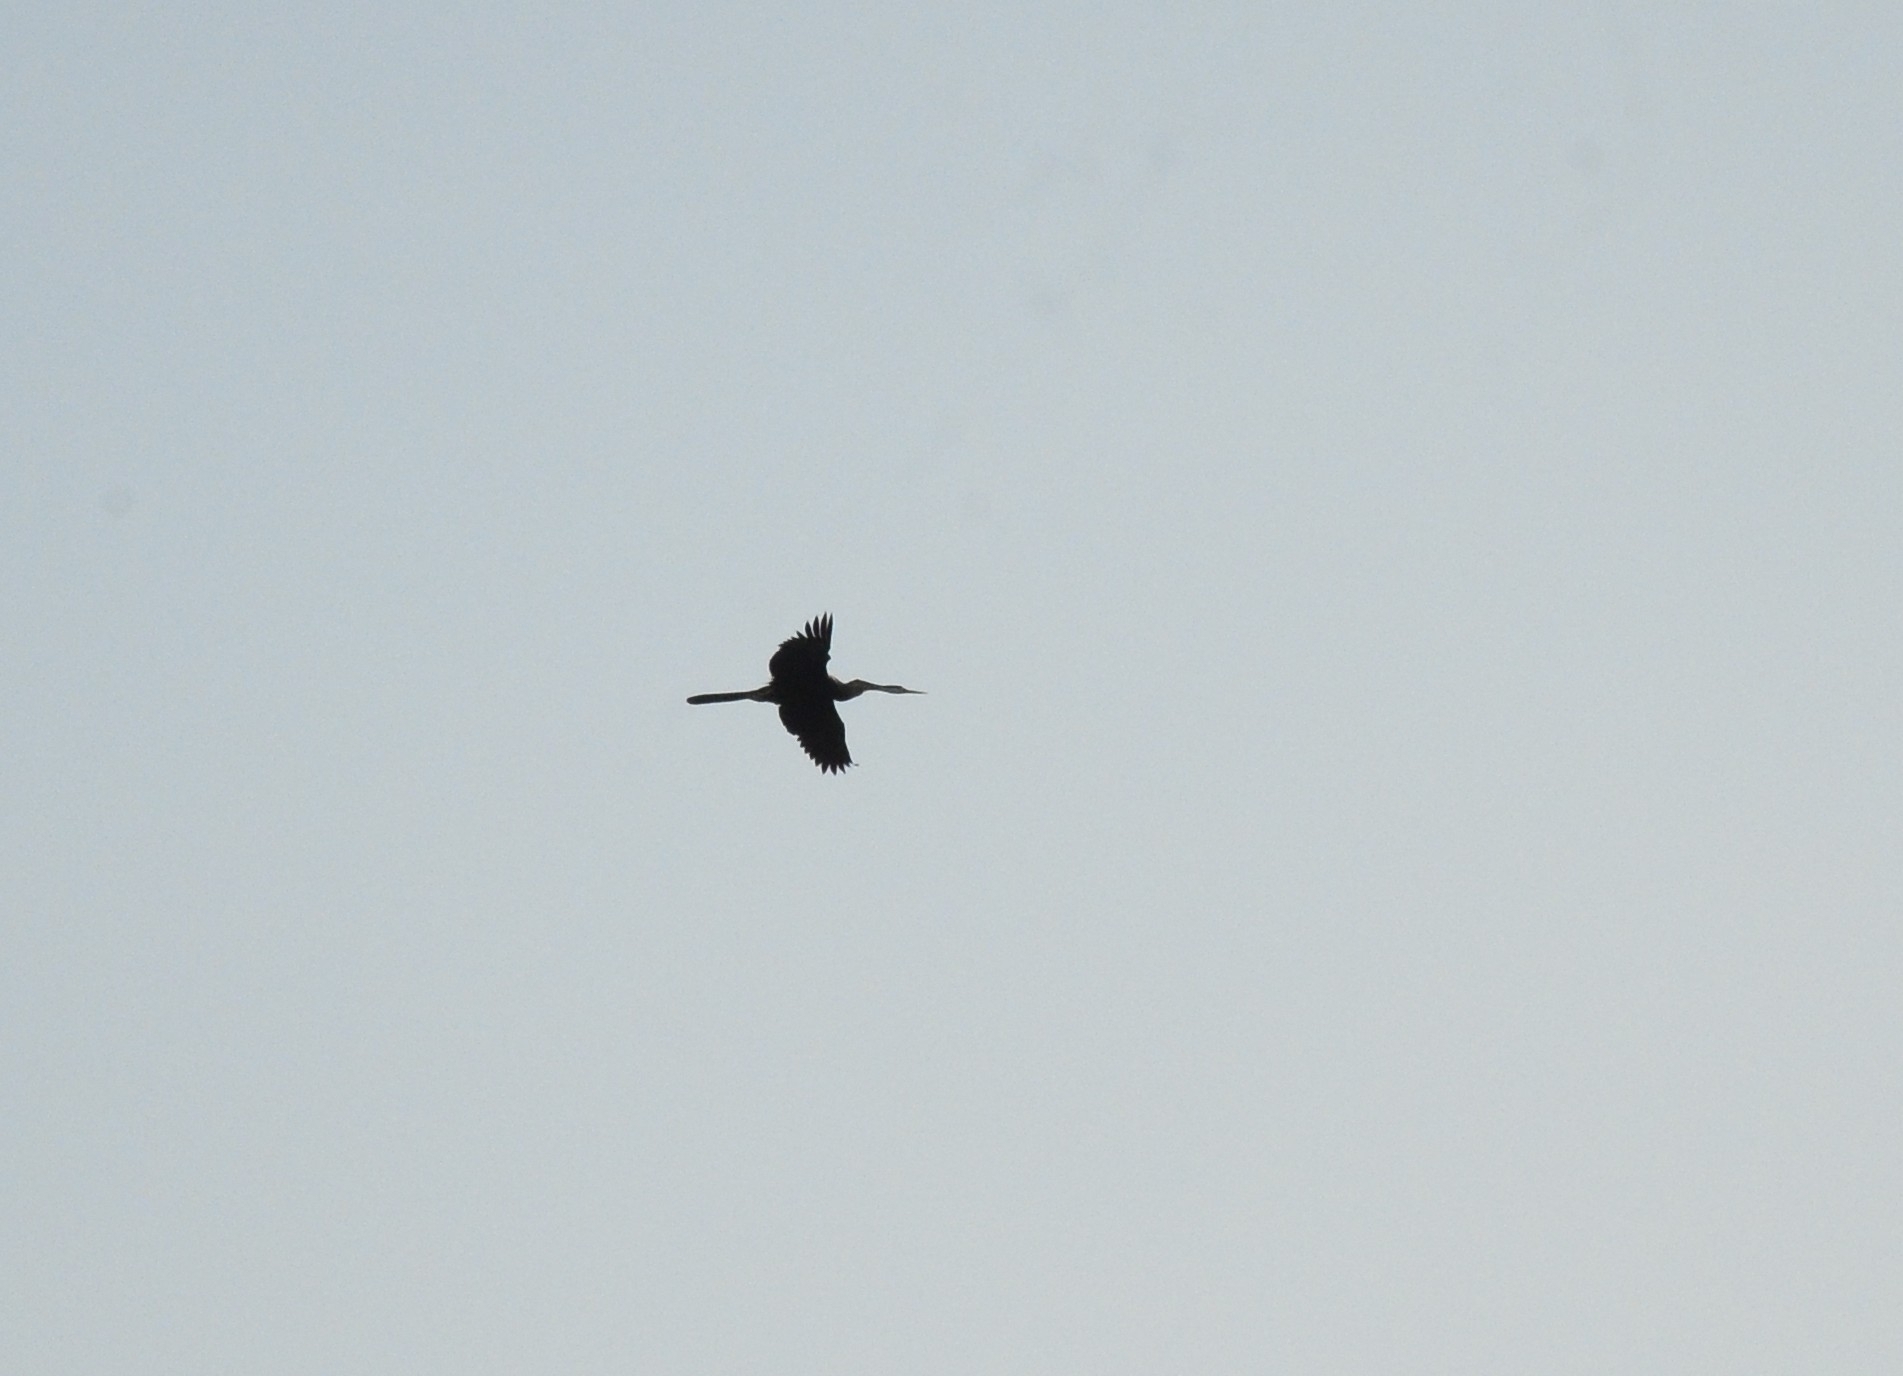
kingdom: Animalia
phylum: Chordata
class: Aves
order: Suliformes
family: Anhingidae
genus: Anhinga
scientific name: Anhinga melanogaster
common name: Oriental darter
